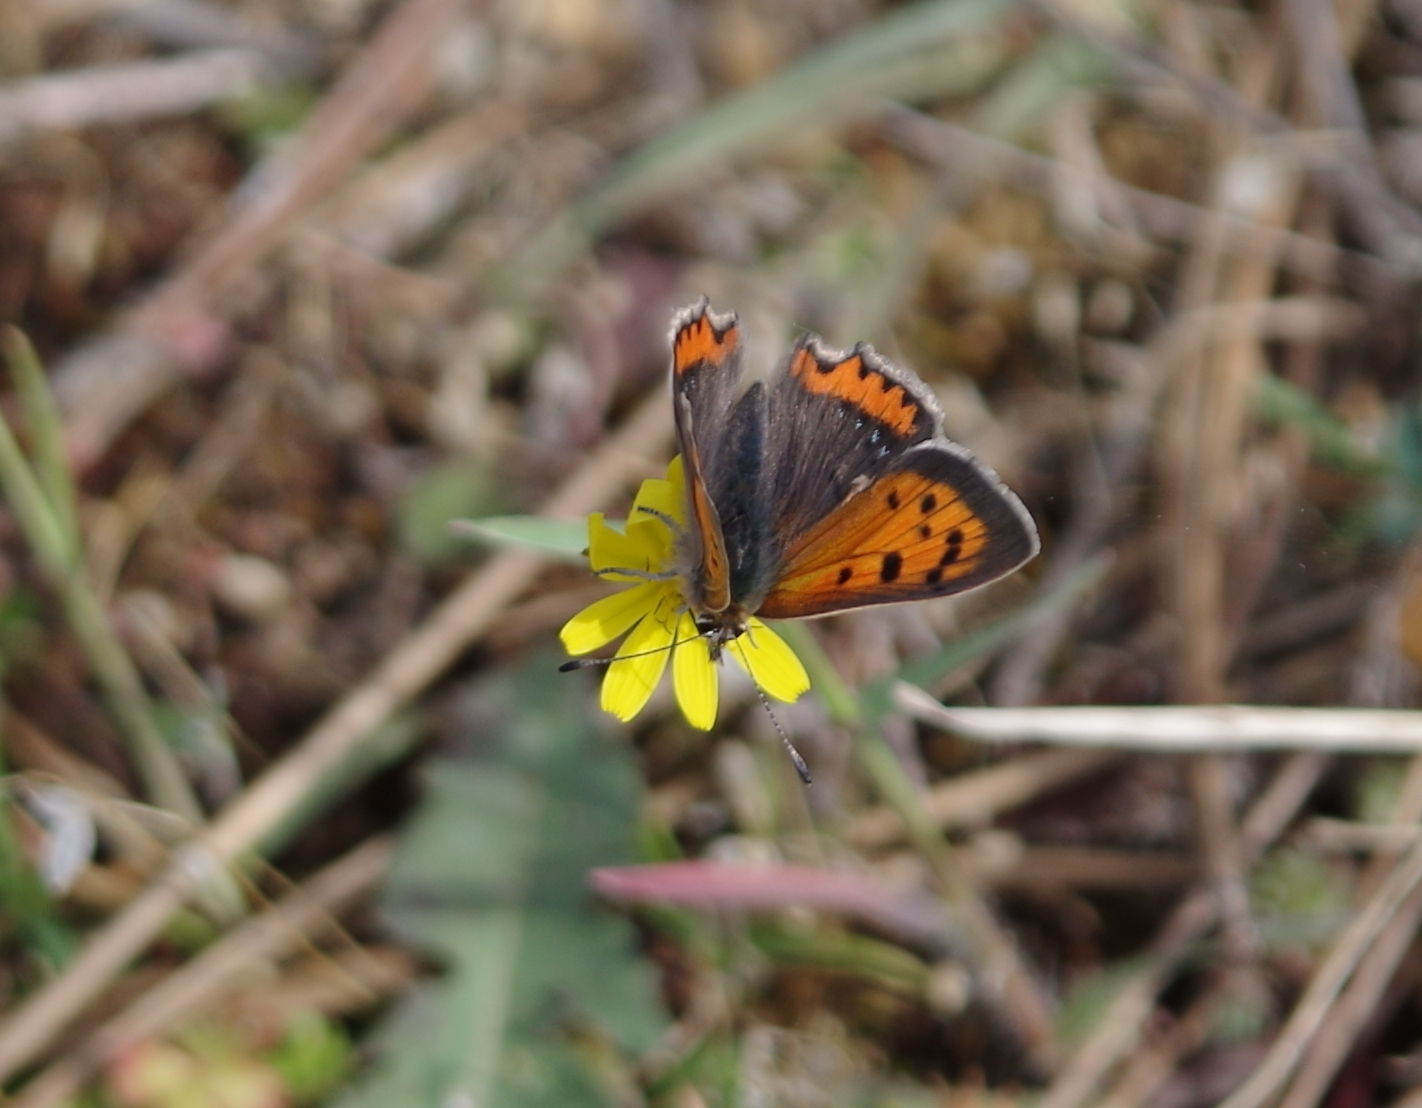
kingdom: Animalia
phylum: Arthropoda
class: Insecta
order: Lepidoptera
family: Lycaenidae
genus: Lycaena
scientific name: Lycaena phlaeas
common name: Small copper
